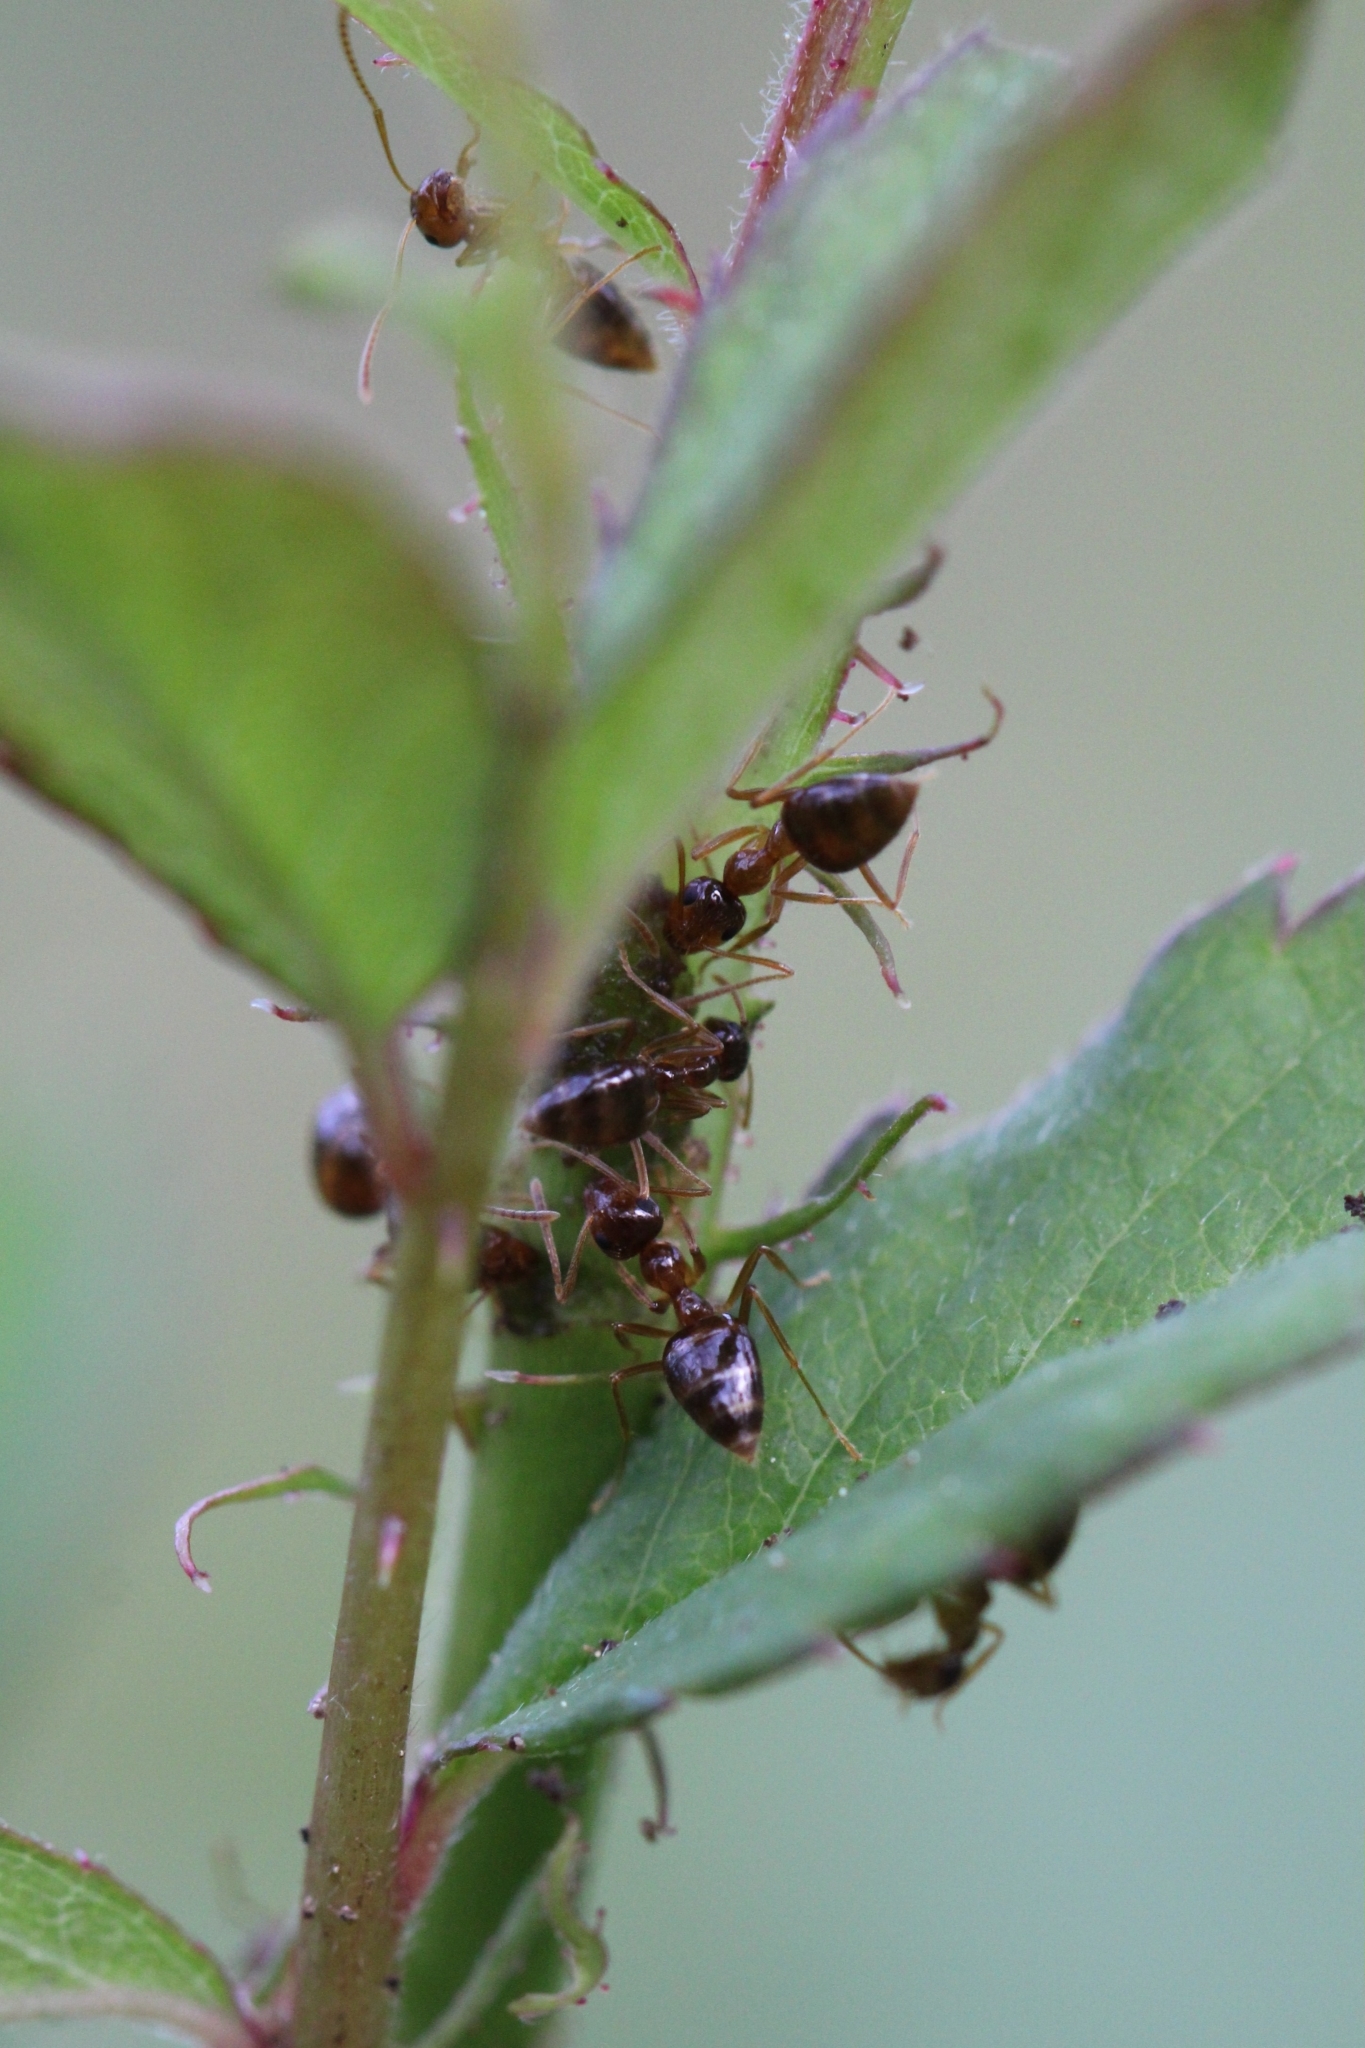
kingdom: Animalia
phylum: Arthropoda
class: Insecta
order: Hymenoptera
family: Formicidae
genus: Prenolepis
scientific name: Prenolepis imparis
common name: Small honey ant
